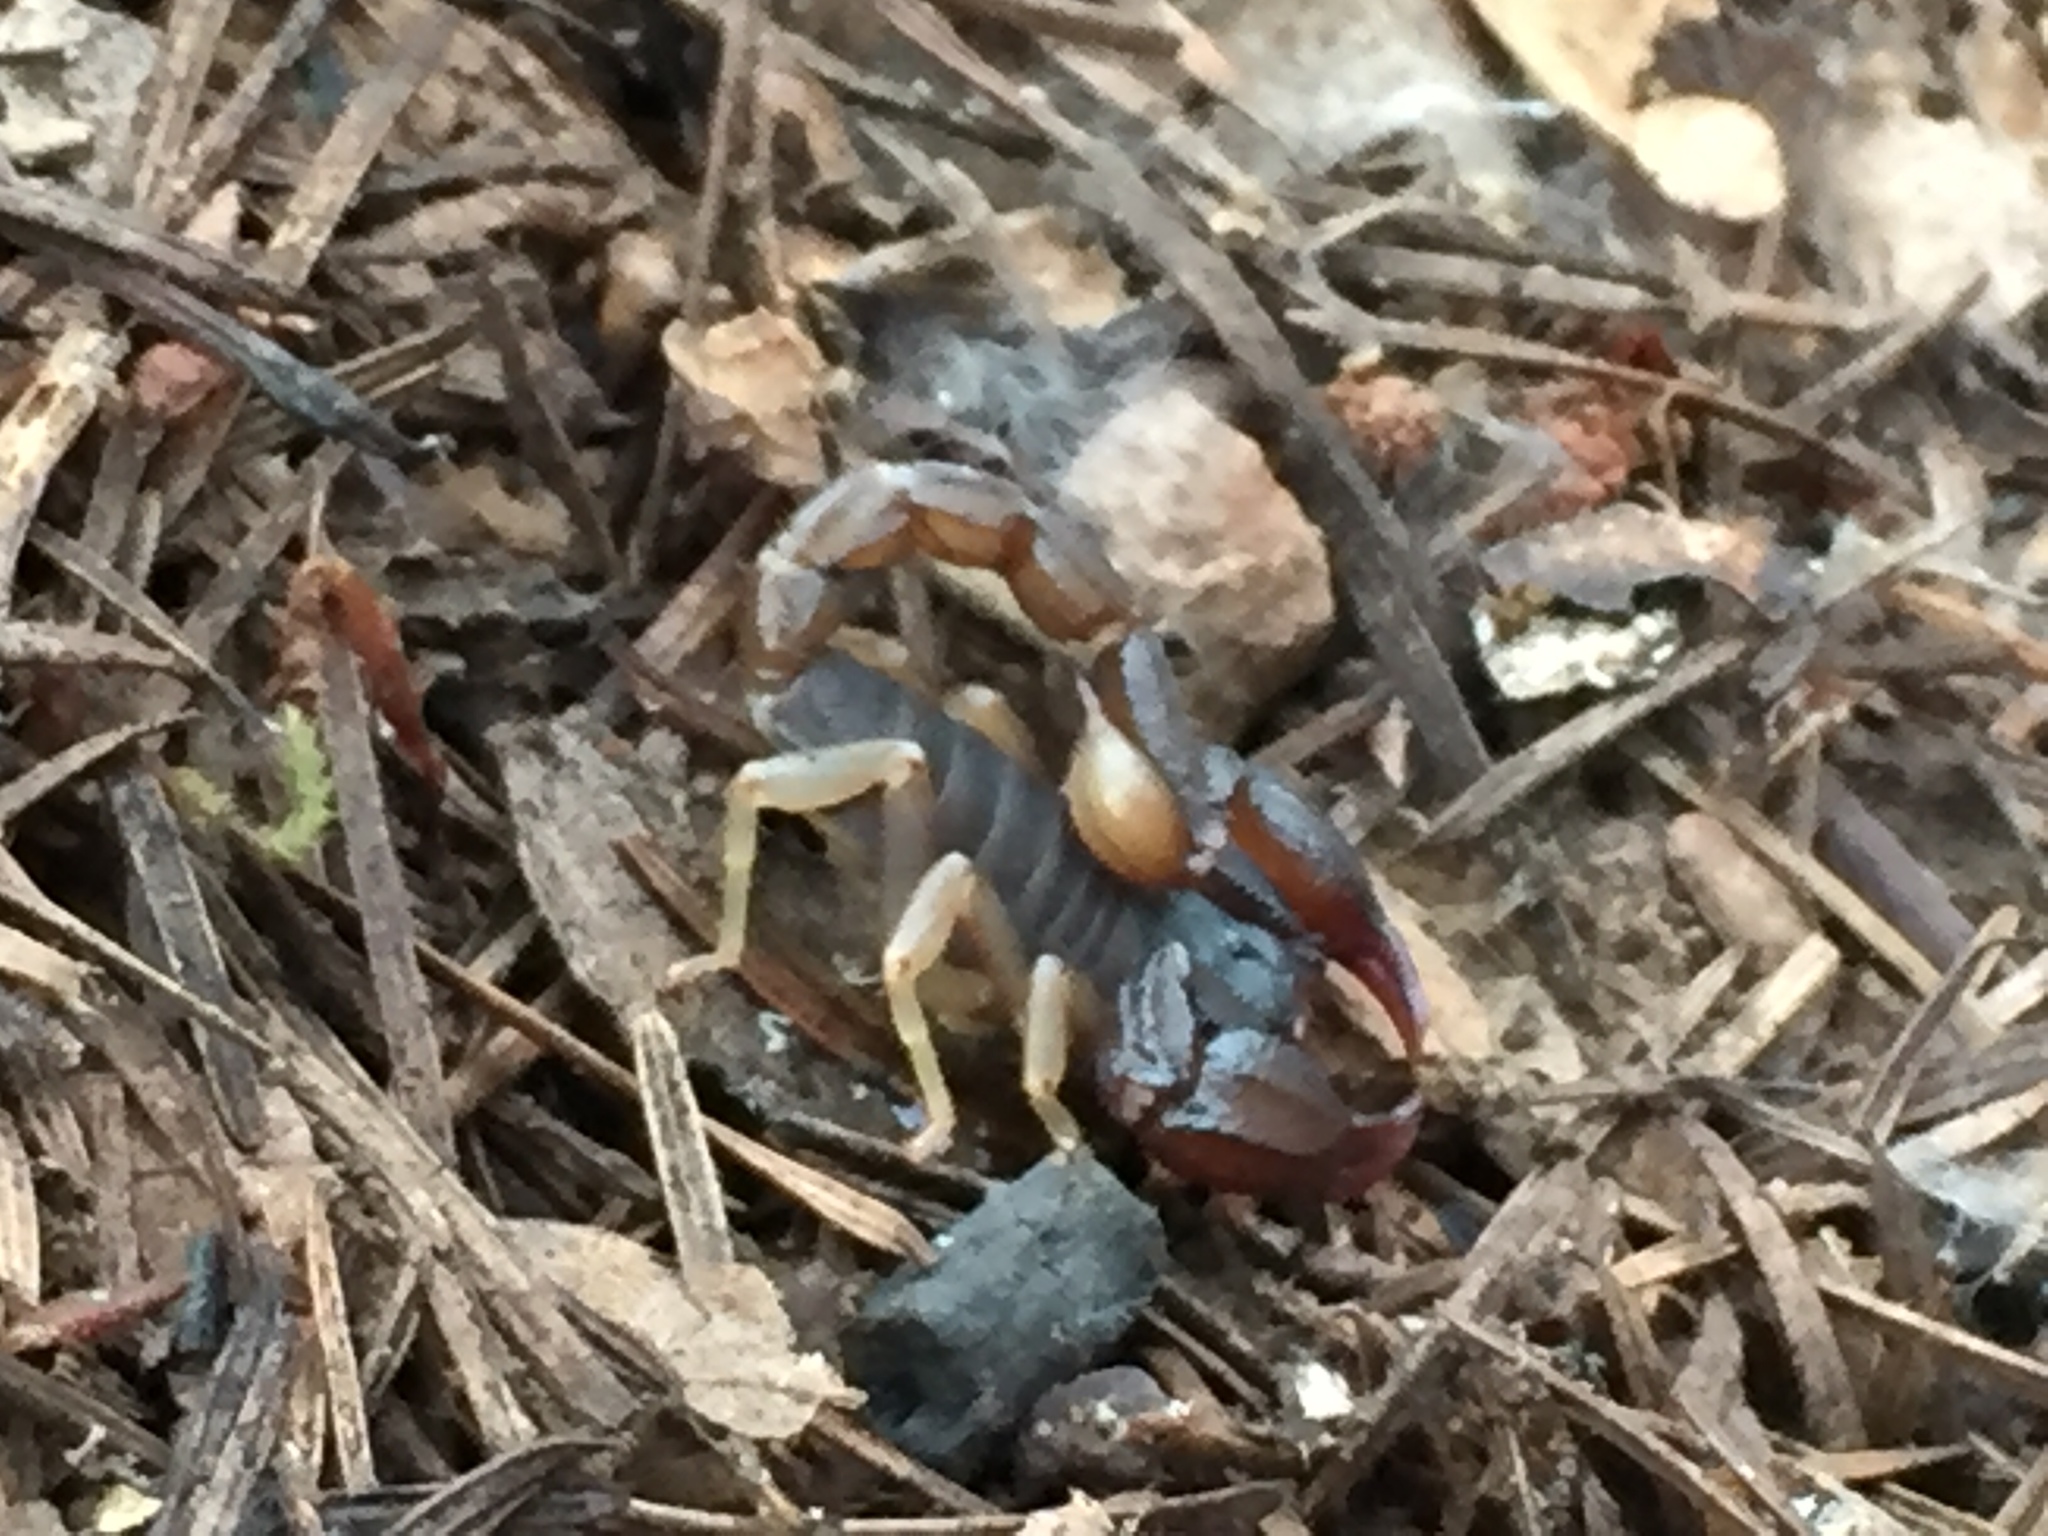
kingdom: Animalia
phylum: Arthropoda
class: Arachnida
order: Scorpiones
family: Chactidae
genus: Uroctonus
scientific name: Uroctonus mordax
